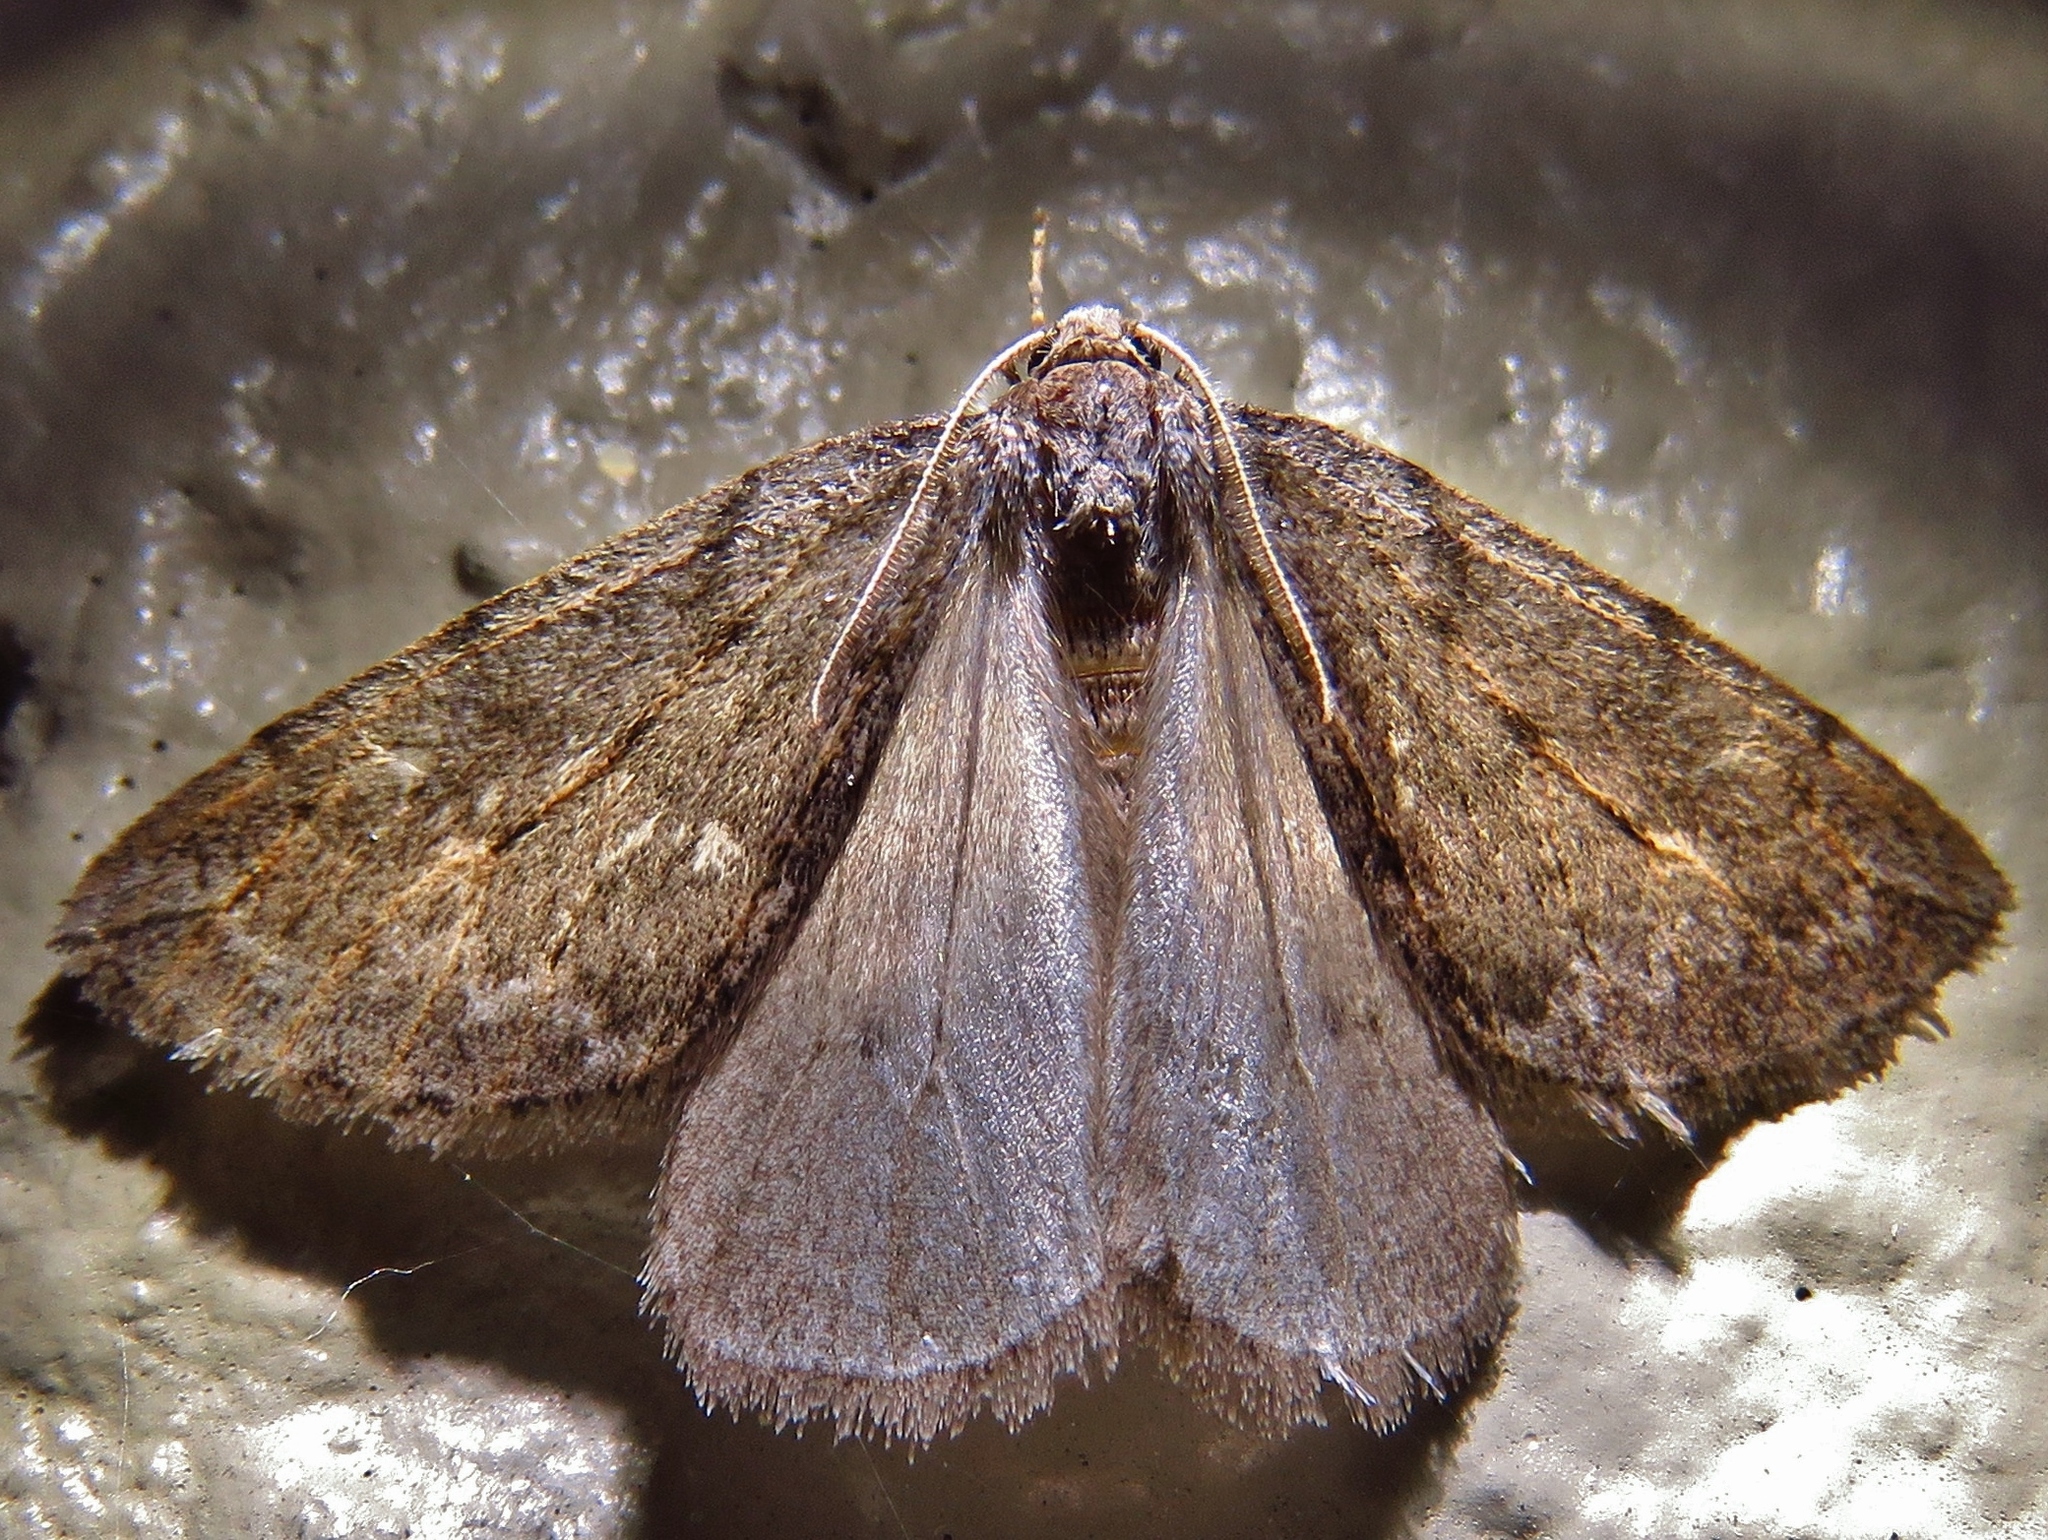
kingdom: Animalia
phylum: Arthropoda
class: Insecta
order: Lepidoptera
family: Geometridae
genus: Paleacrita
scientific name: Paleacrita vernata
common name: Spring cankerworm
